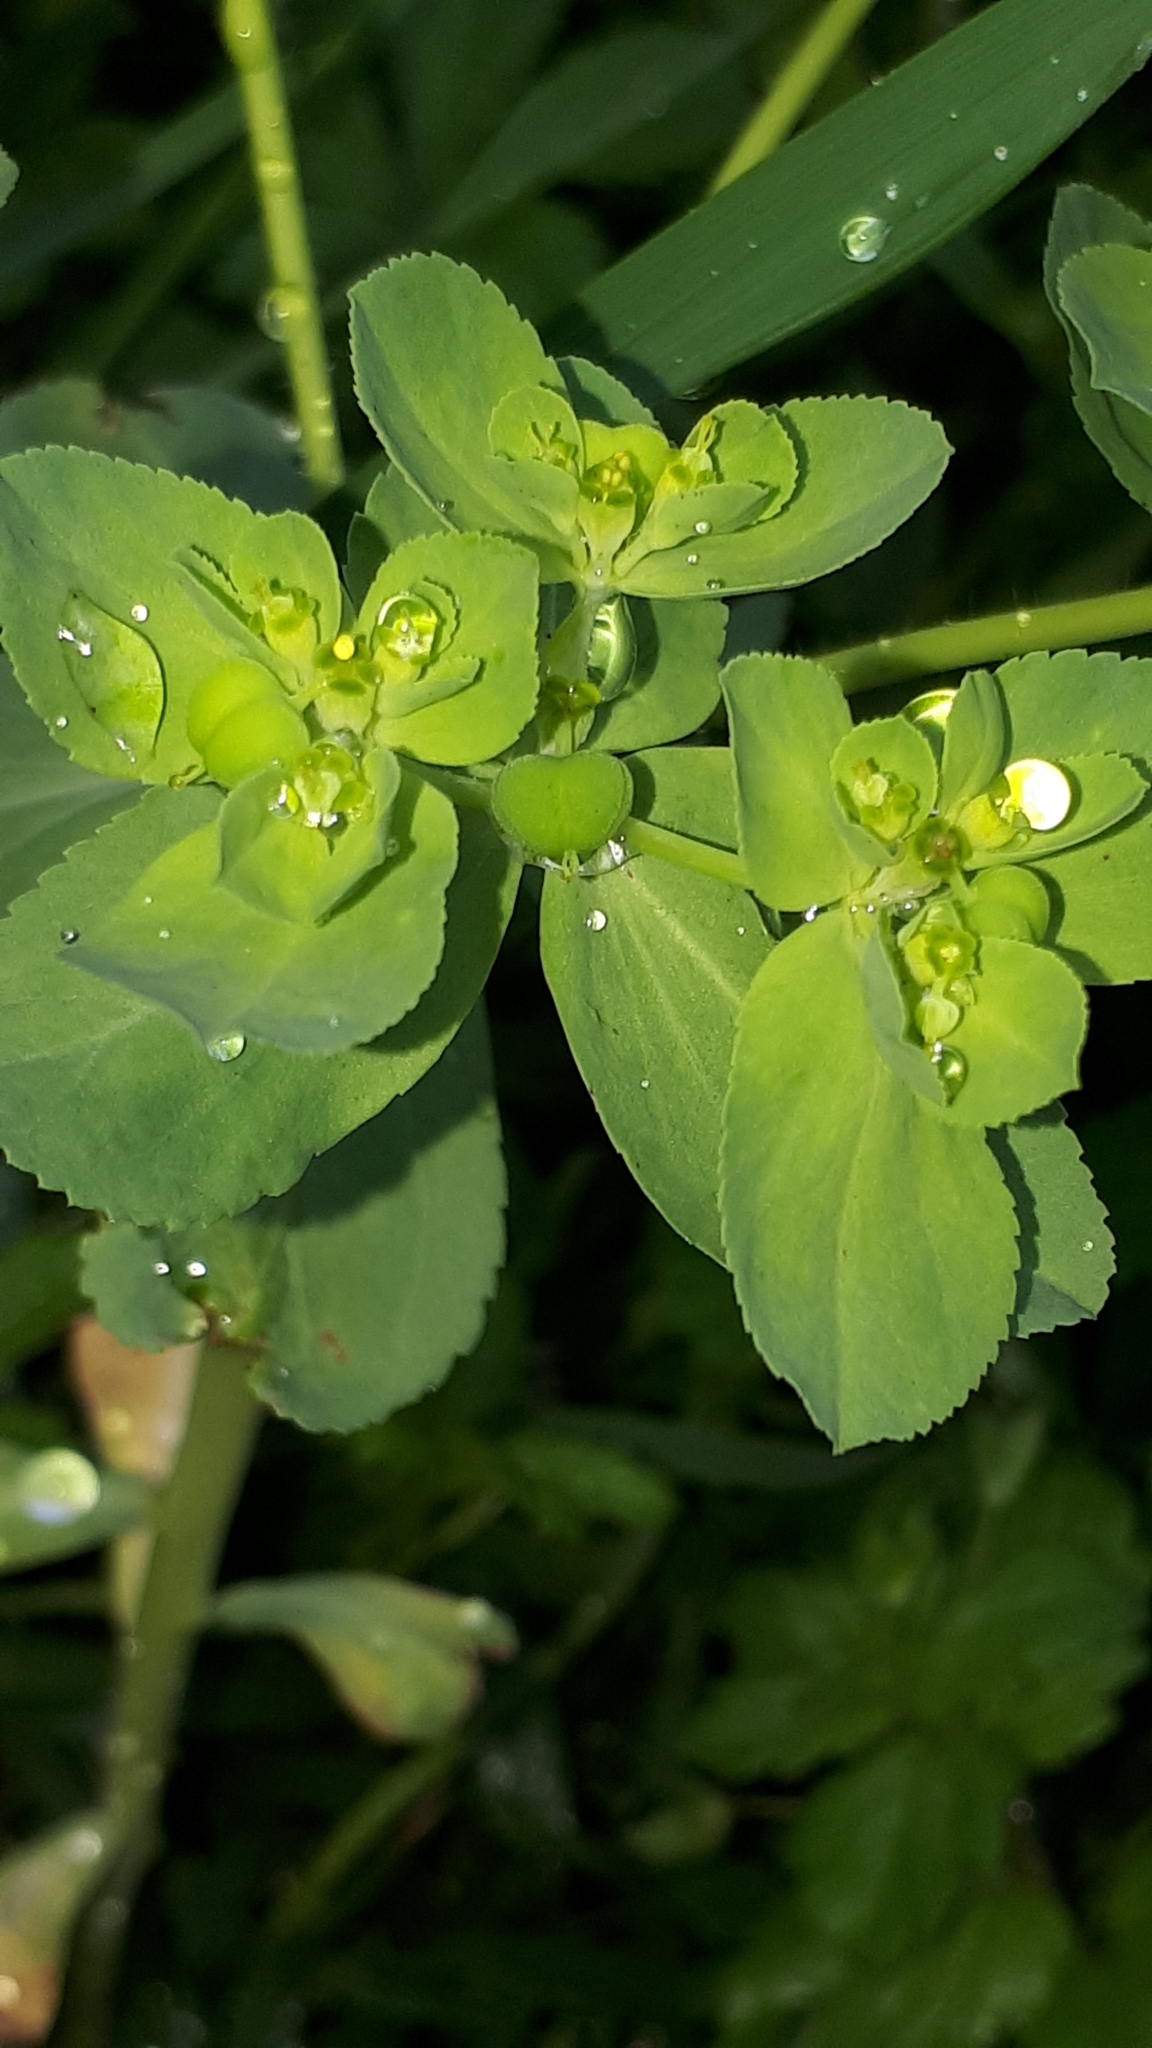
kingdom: Plantae
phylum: Tracheophyta
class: Magnoliopsida
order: Malpighiales
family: Euphorbiaceae
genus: Euphorbia
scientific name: Euphorbia helioscopia
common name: Sun spurge
